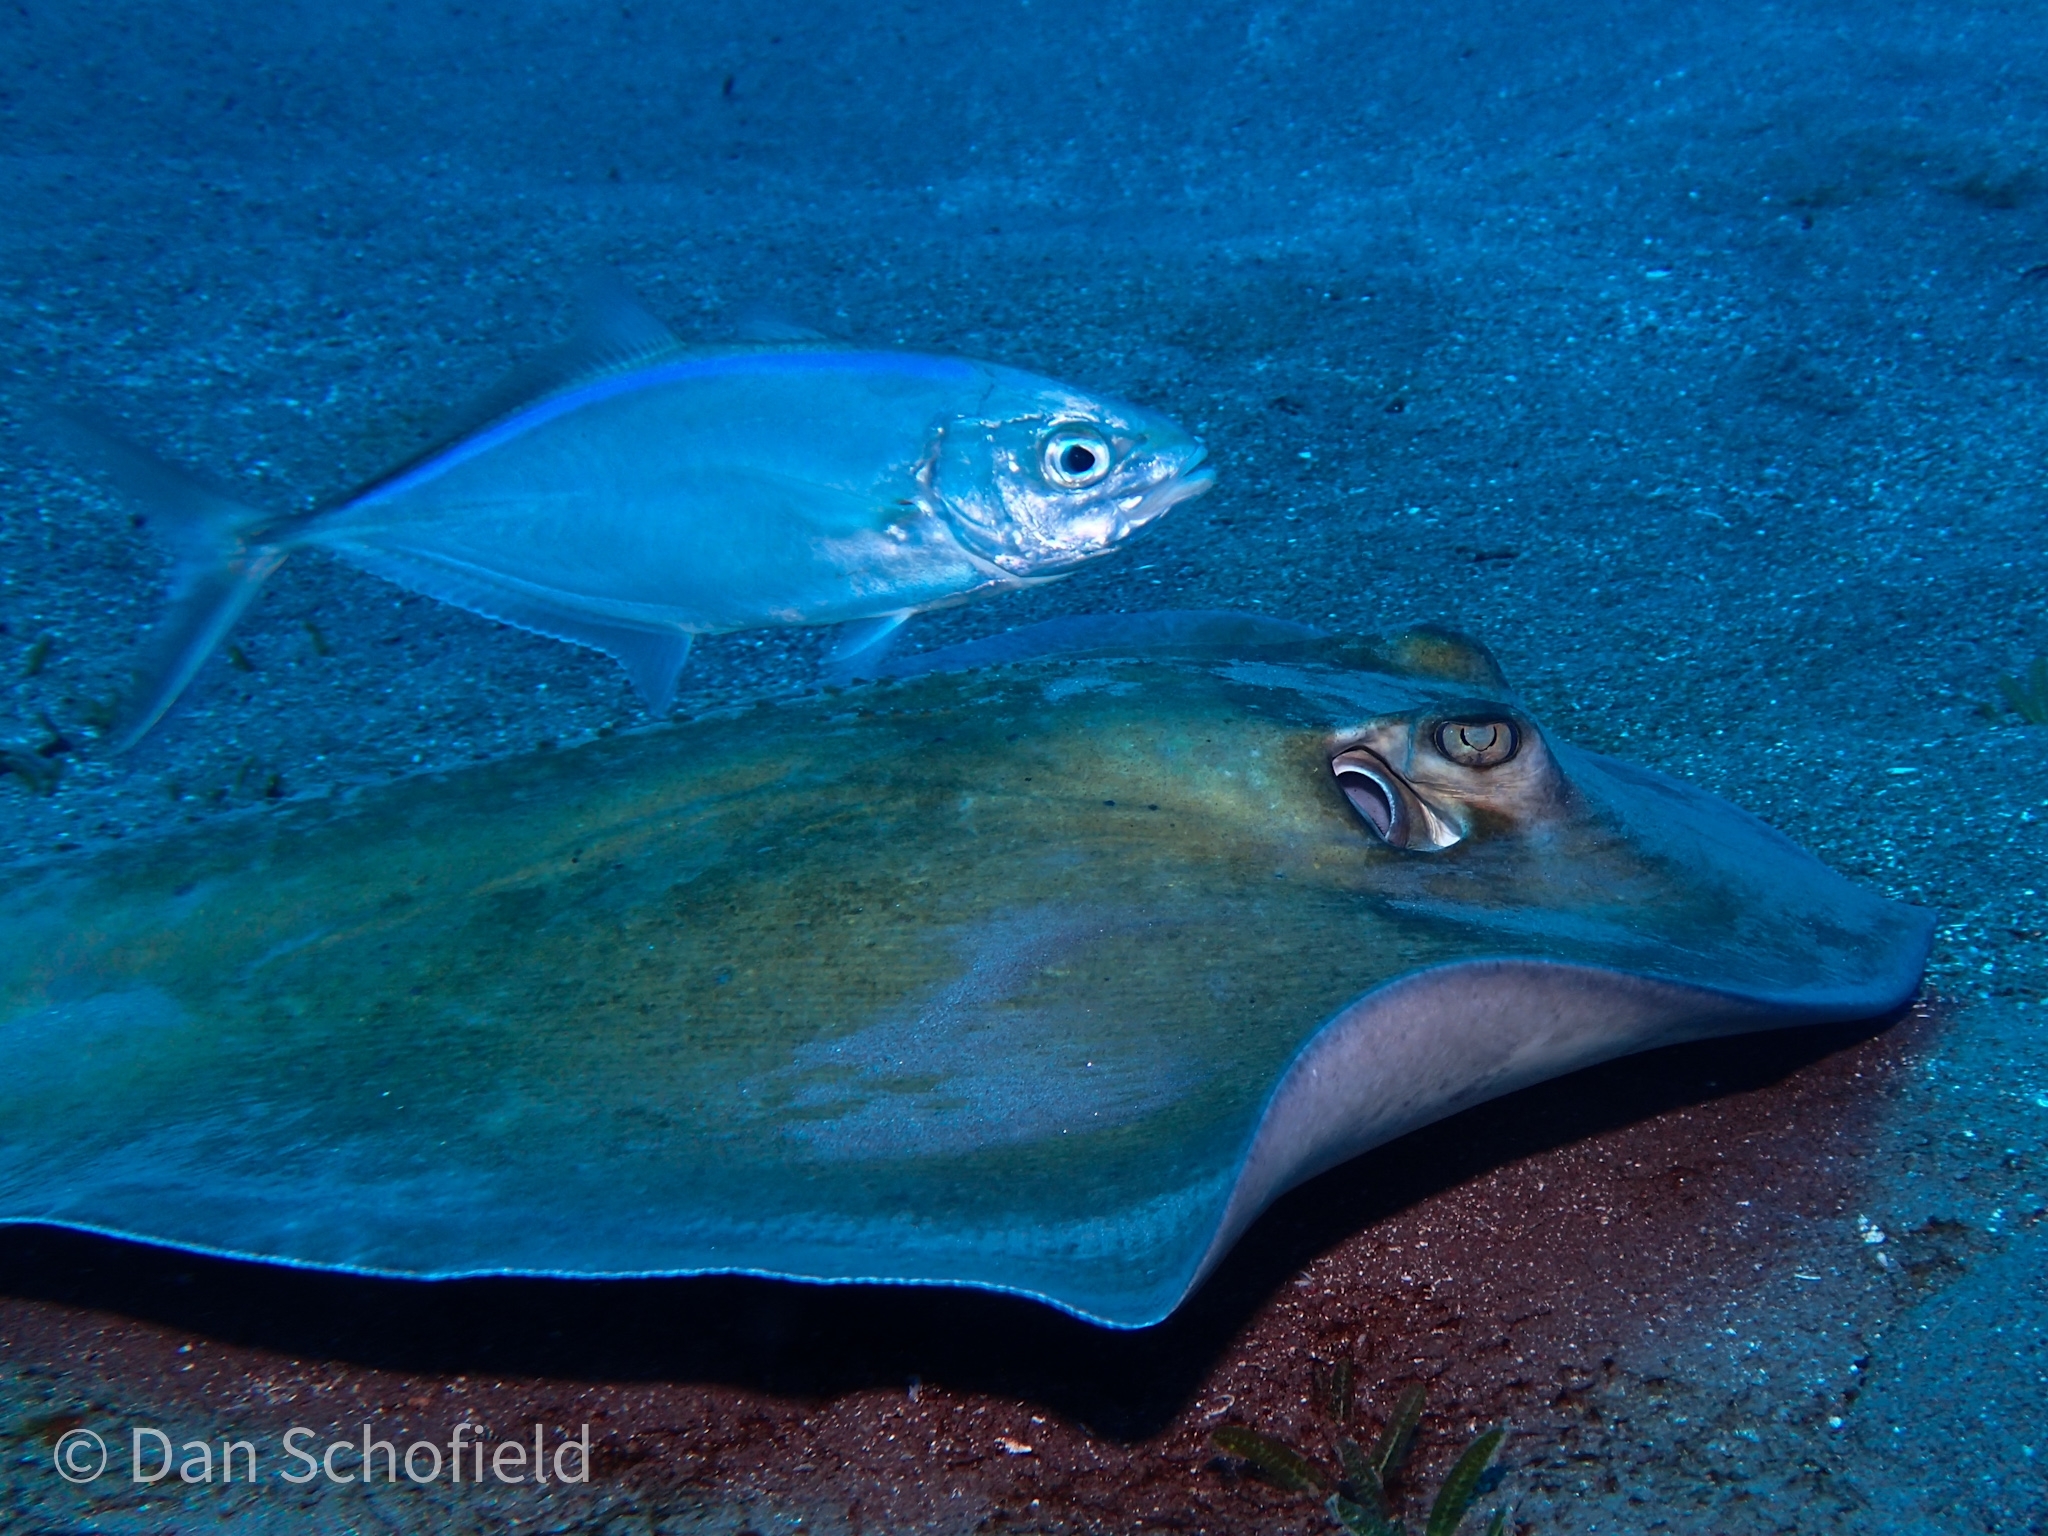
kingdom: Animalia
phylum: Chordata
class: Elasmobranchii
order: Myliobatiformes
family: Dasyatidae
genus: Hypanus
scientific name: Hypanus americanus
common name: Southern stingray
